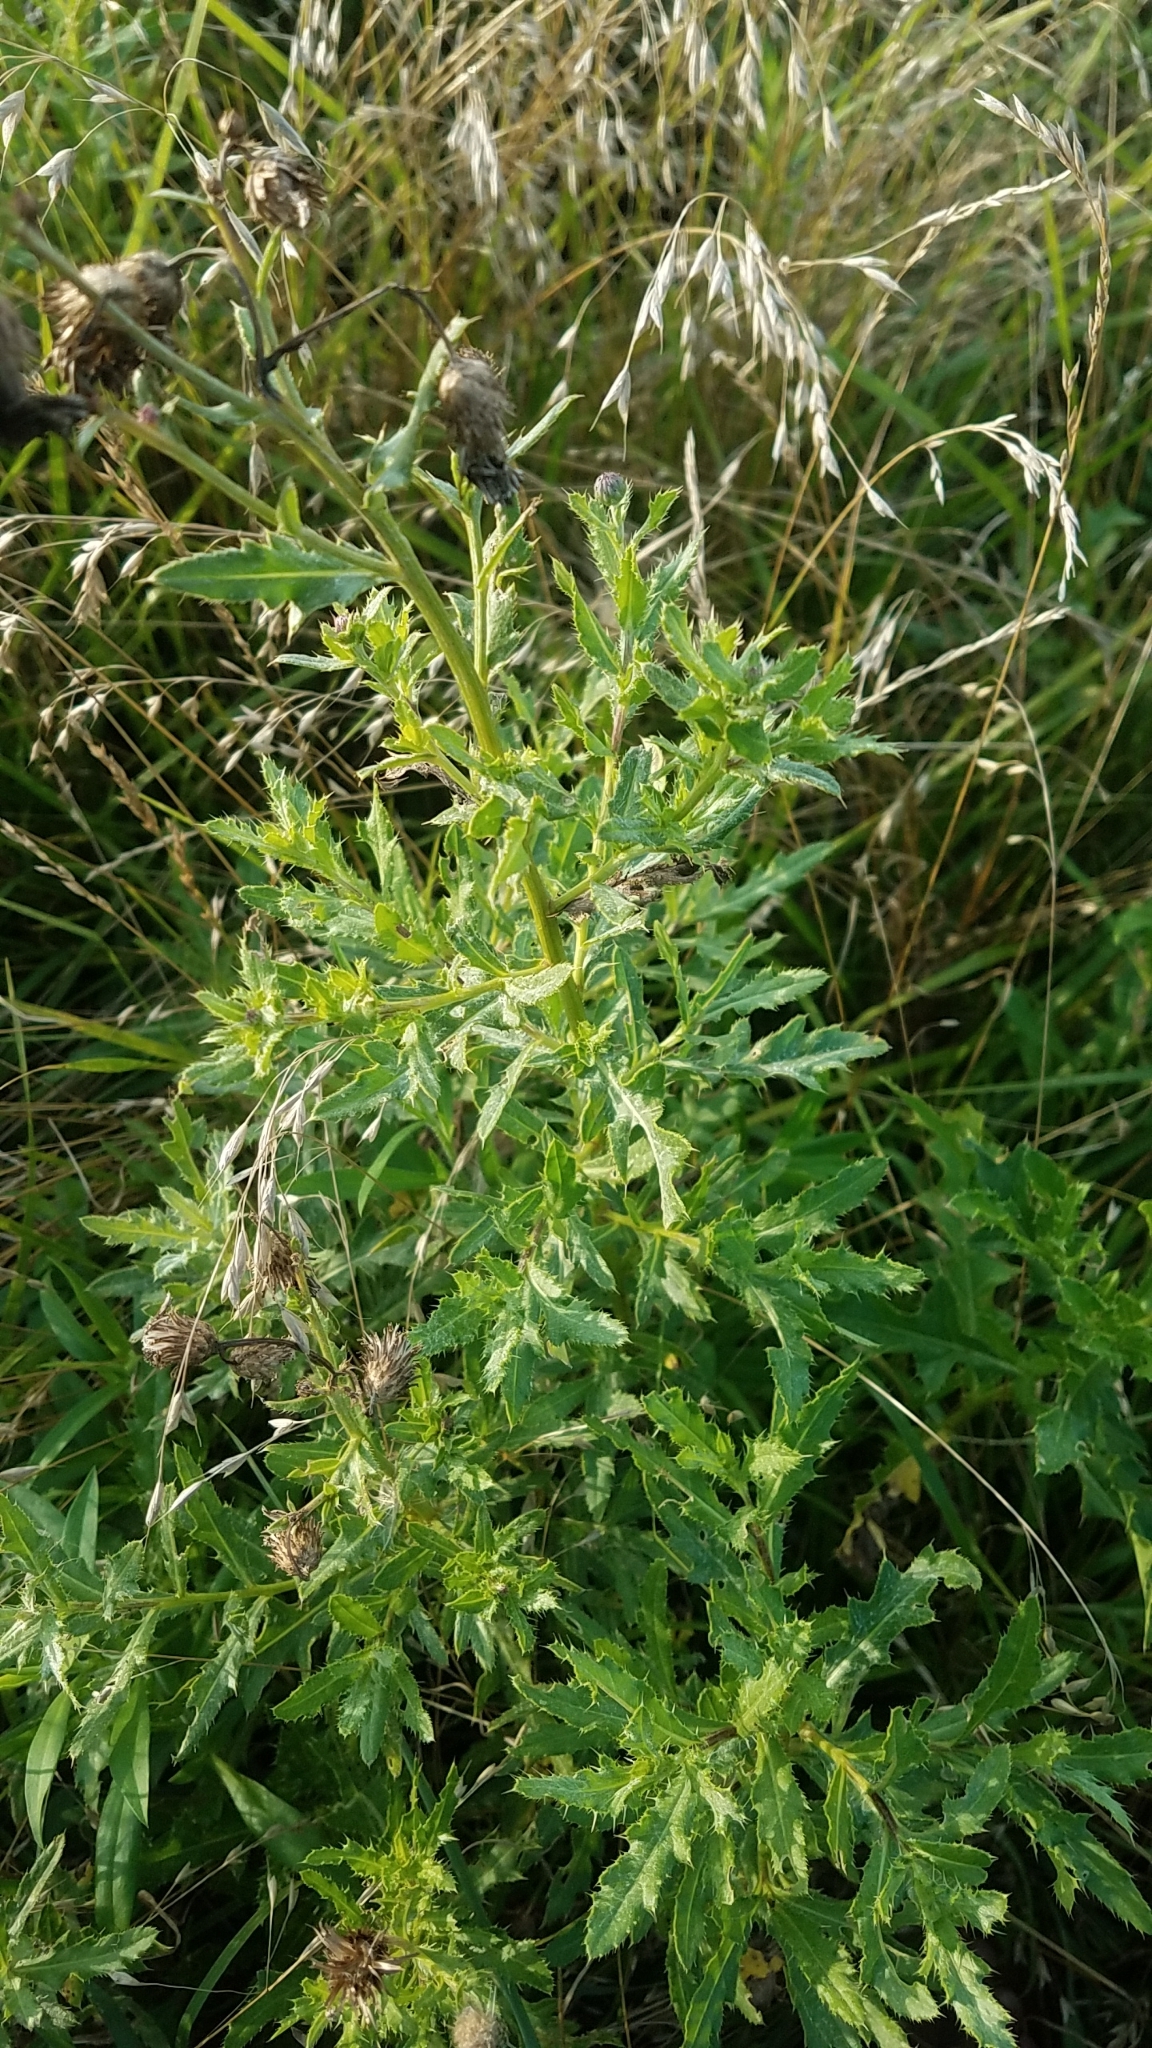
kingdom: Plantae
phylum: Tracheophyta
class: Magnoliopsida
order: Asterales
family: Asteraceae
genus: Cirsium
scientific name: Cirsium arvense
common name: Creeping thistle
